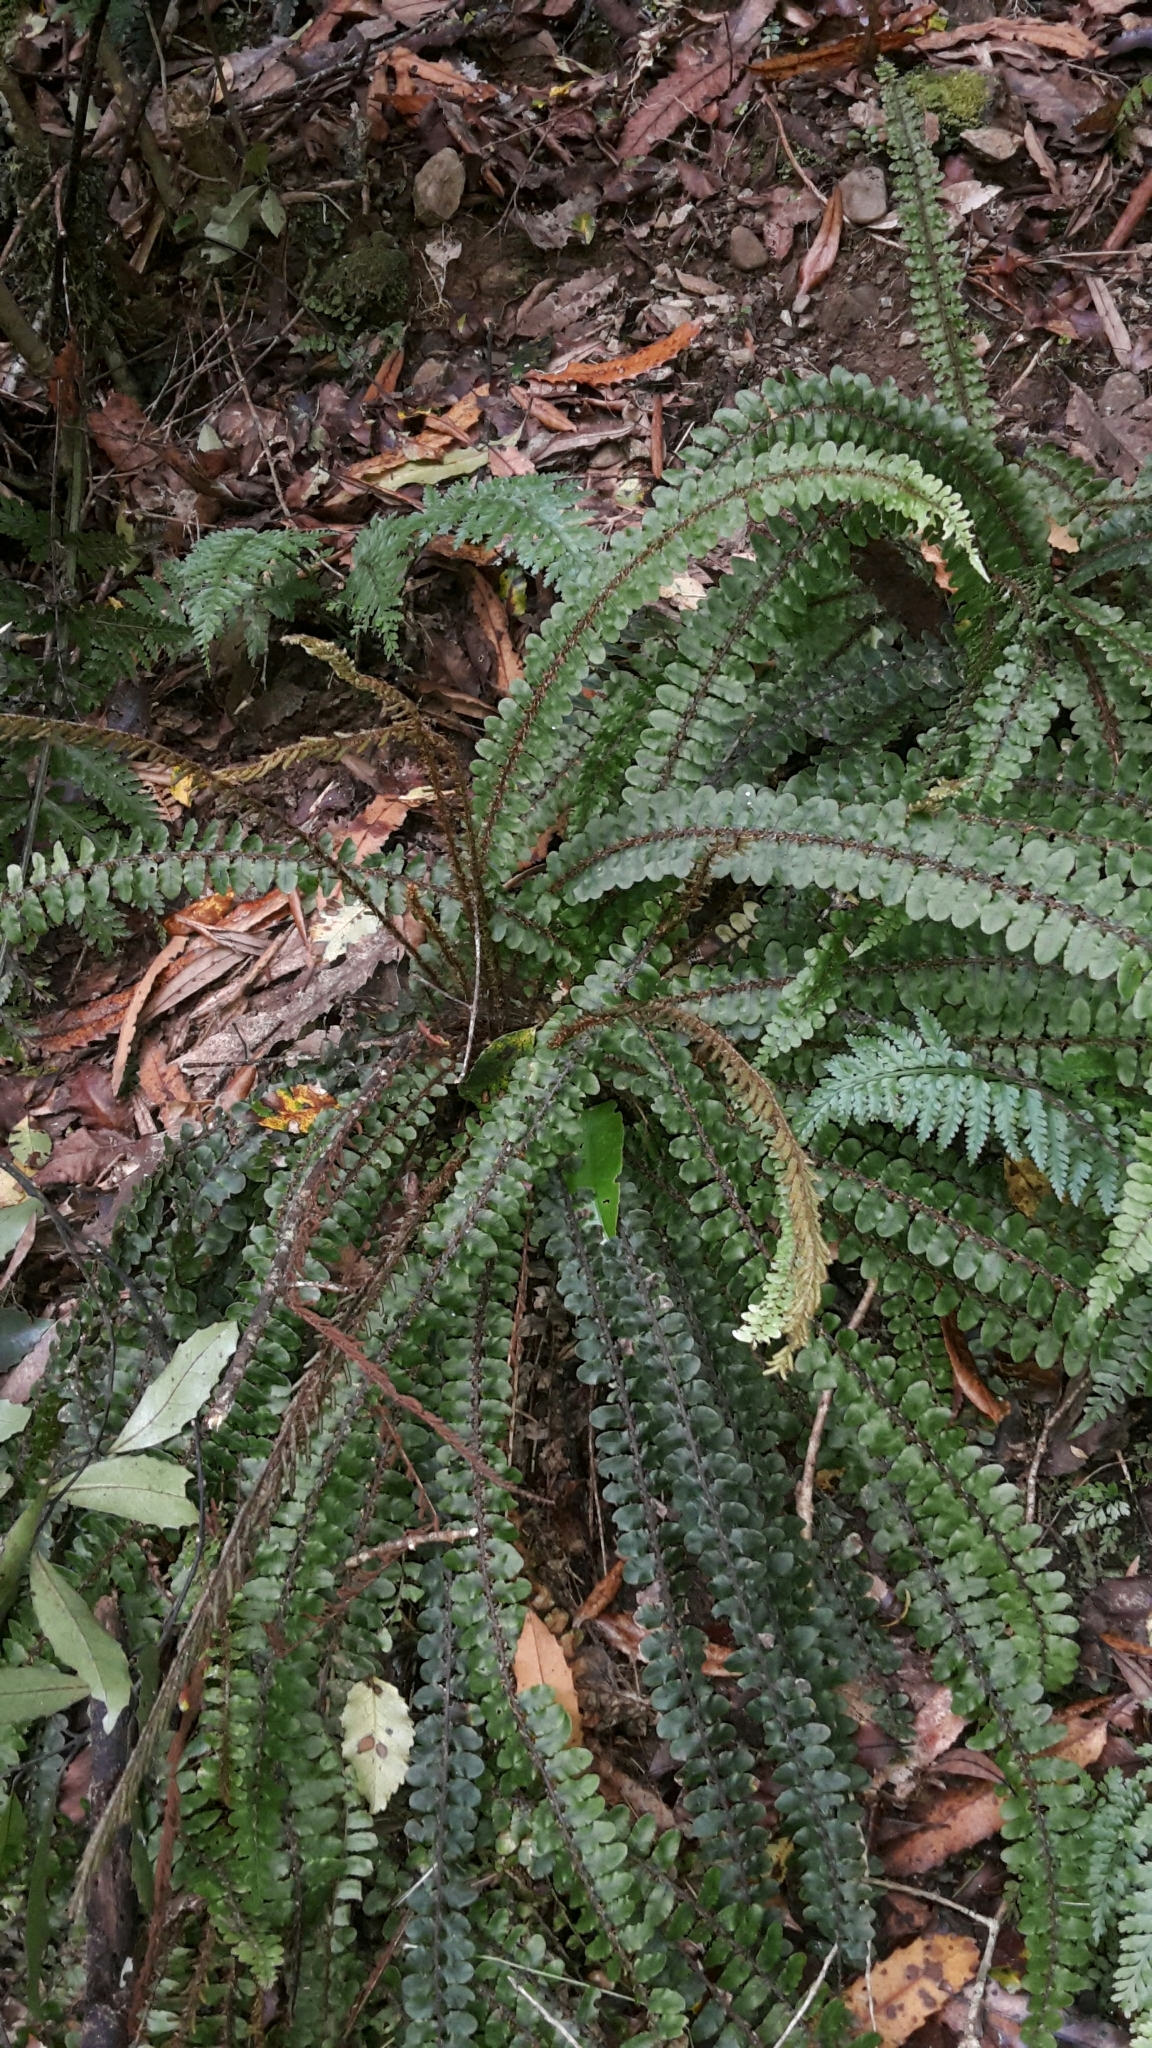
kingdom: Plantae
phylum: Tracheophyta
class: Polypodiopsida
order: Polypodiales
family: Blechnaceae
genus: Cranfillia
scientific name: Cranfillia fluviatilis
